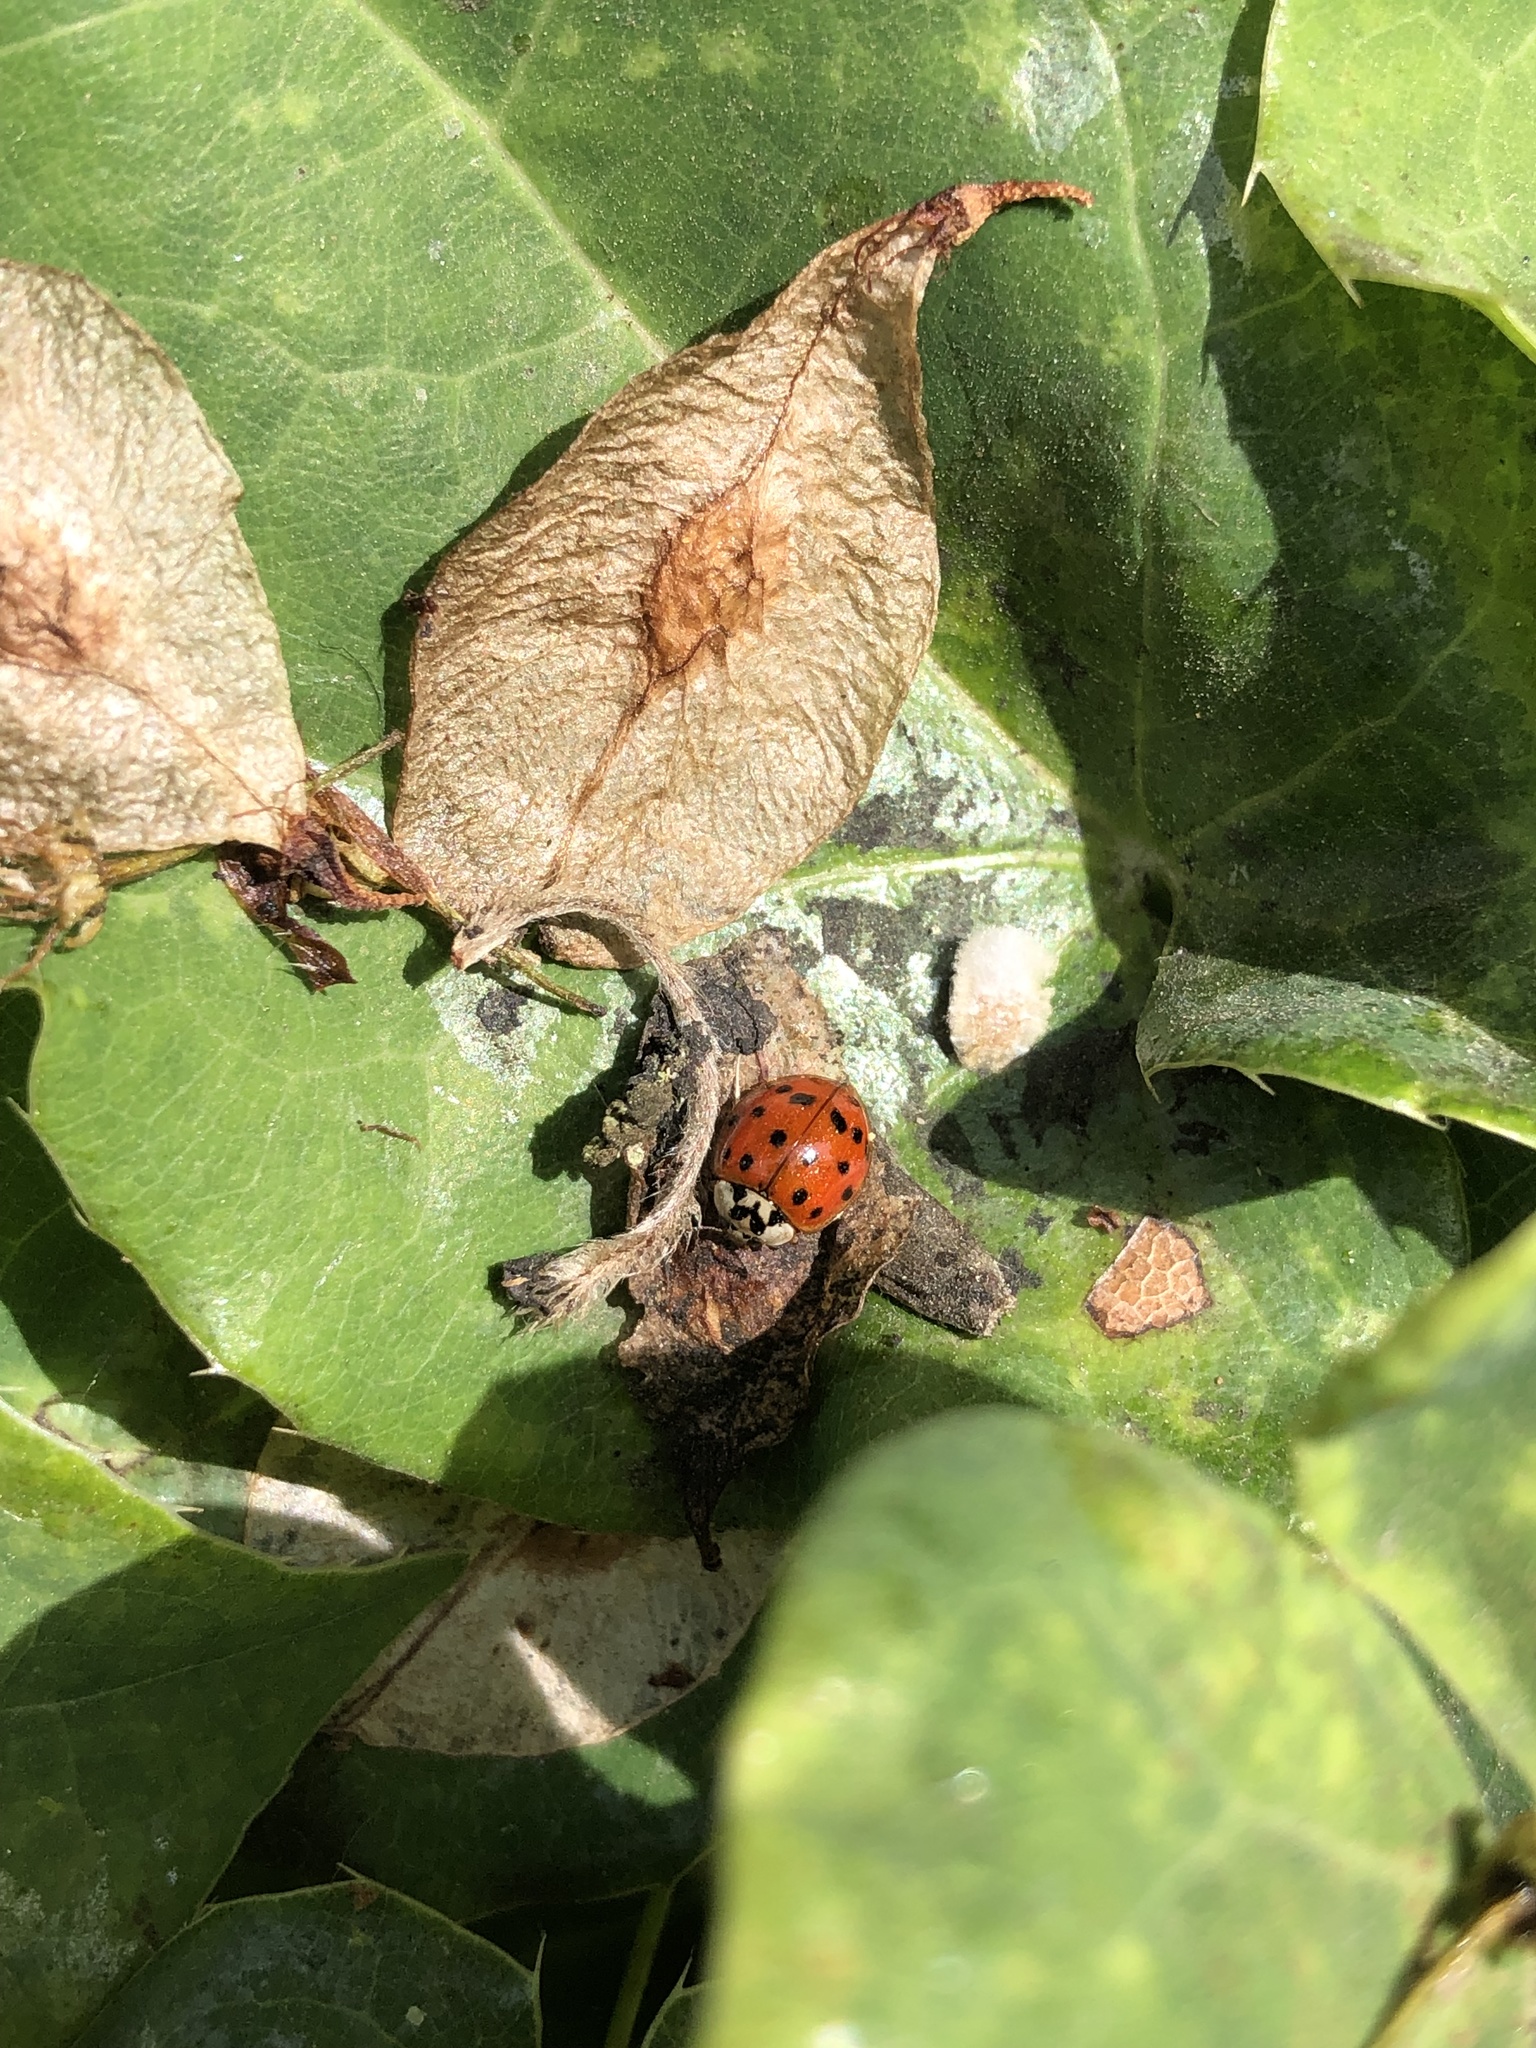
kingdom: Animalia
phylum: Arthropoda
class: Insecta
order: Coleoptera
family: Coccinellidae
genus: Harmonia
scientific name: Harmonia axyridis
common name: Harlequin ladybird
